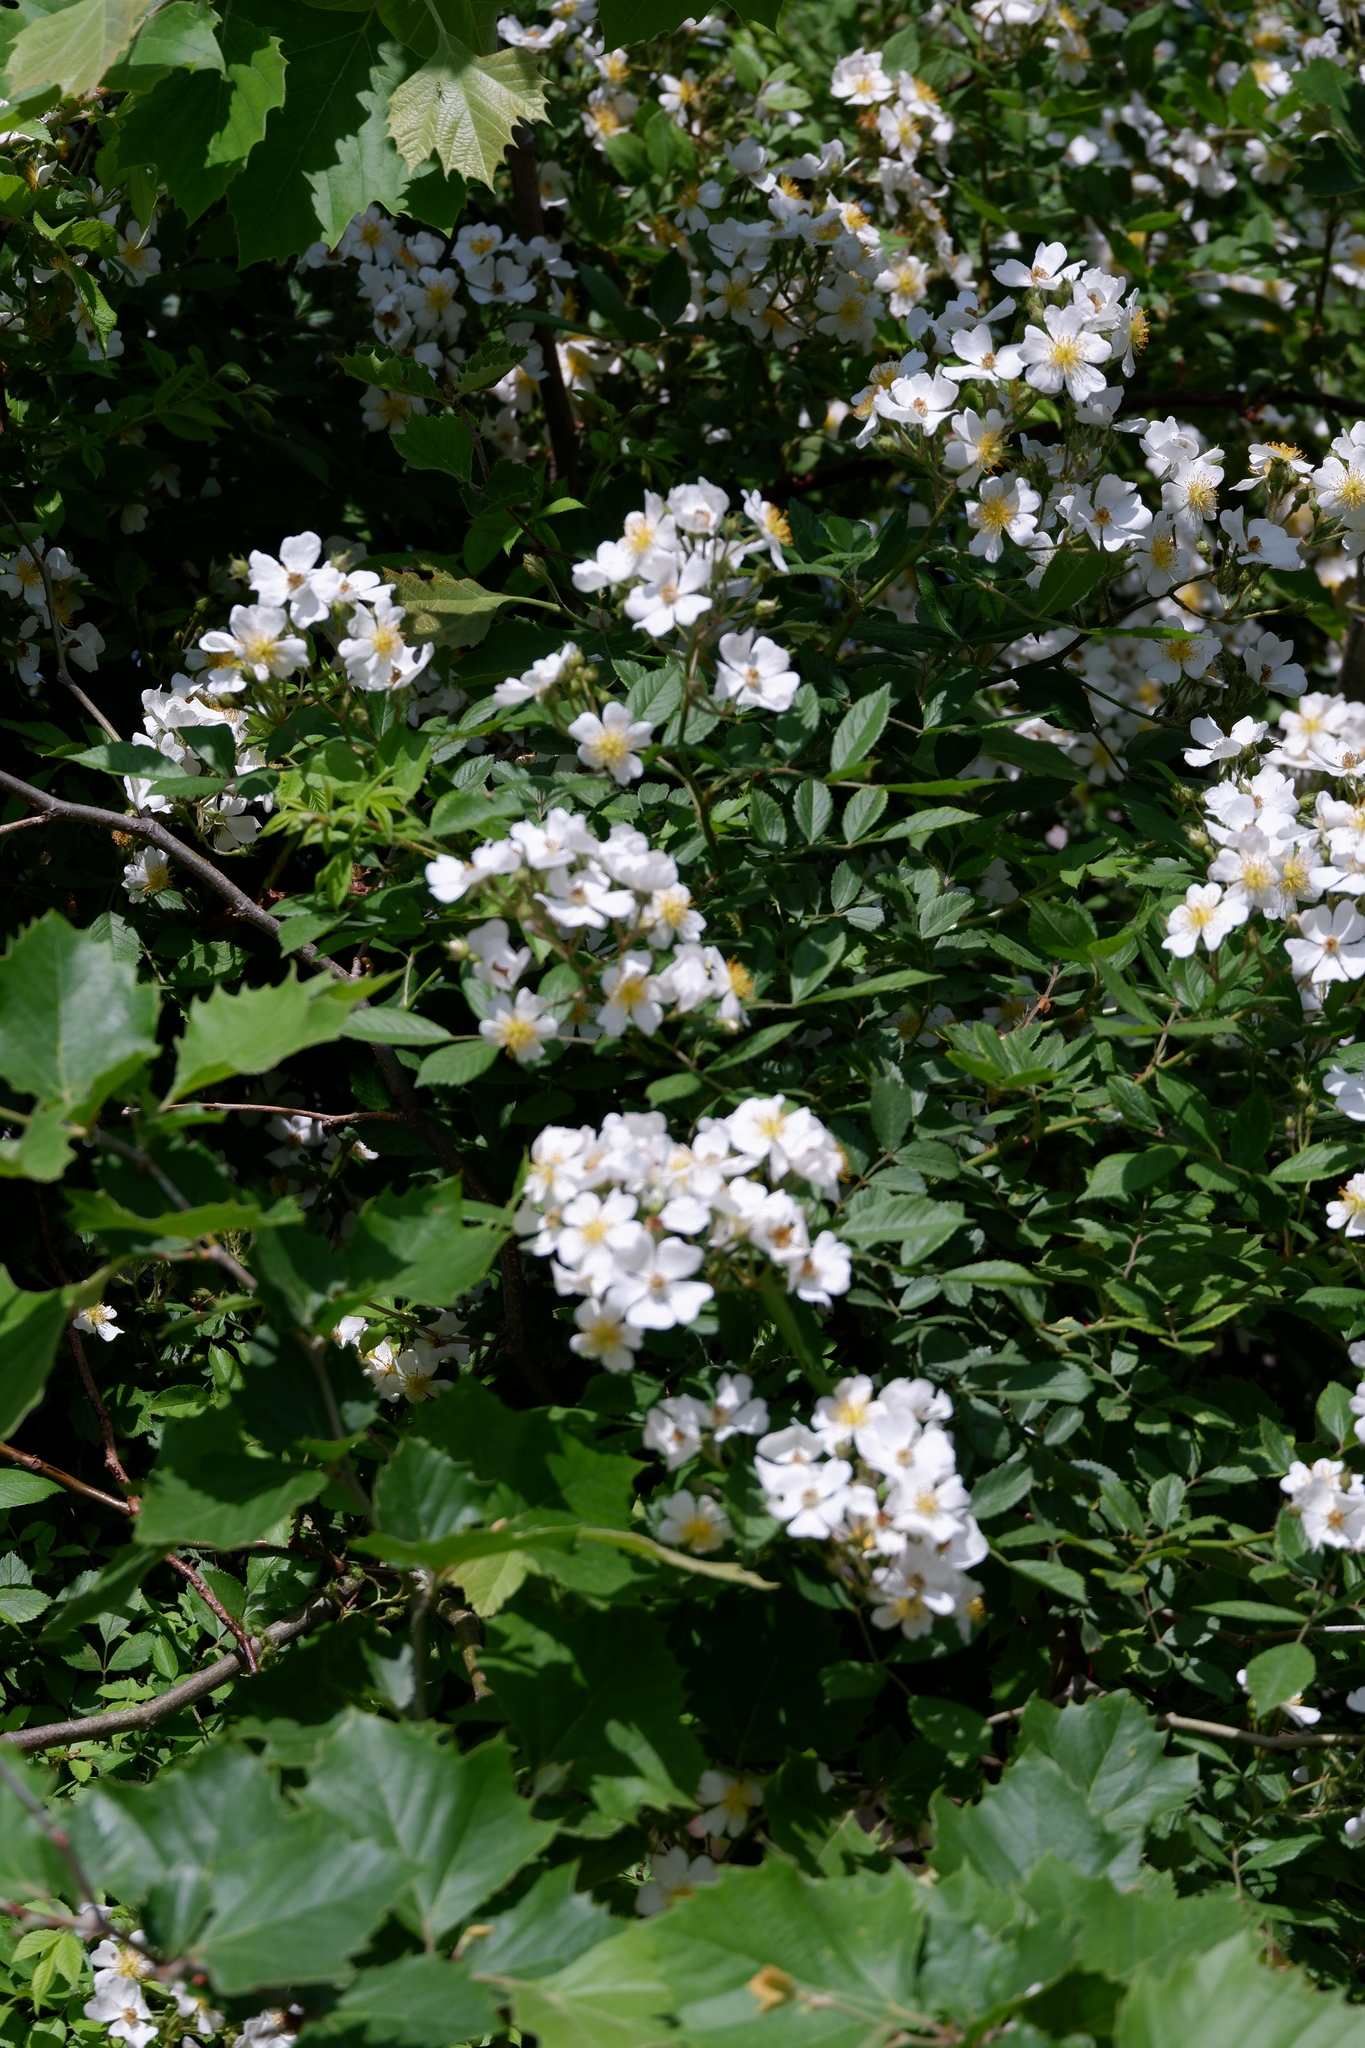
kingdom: Plantae
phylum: Tracheophyta
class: Magnoliopsida
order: Rosales
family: Rosaceae
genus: Rosa
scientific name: Rosa multiflora
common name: Multiflora rose
